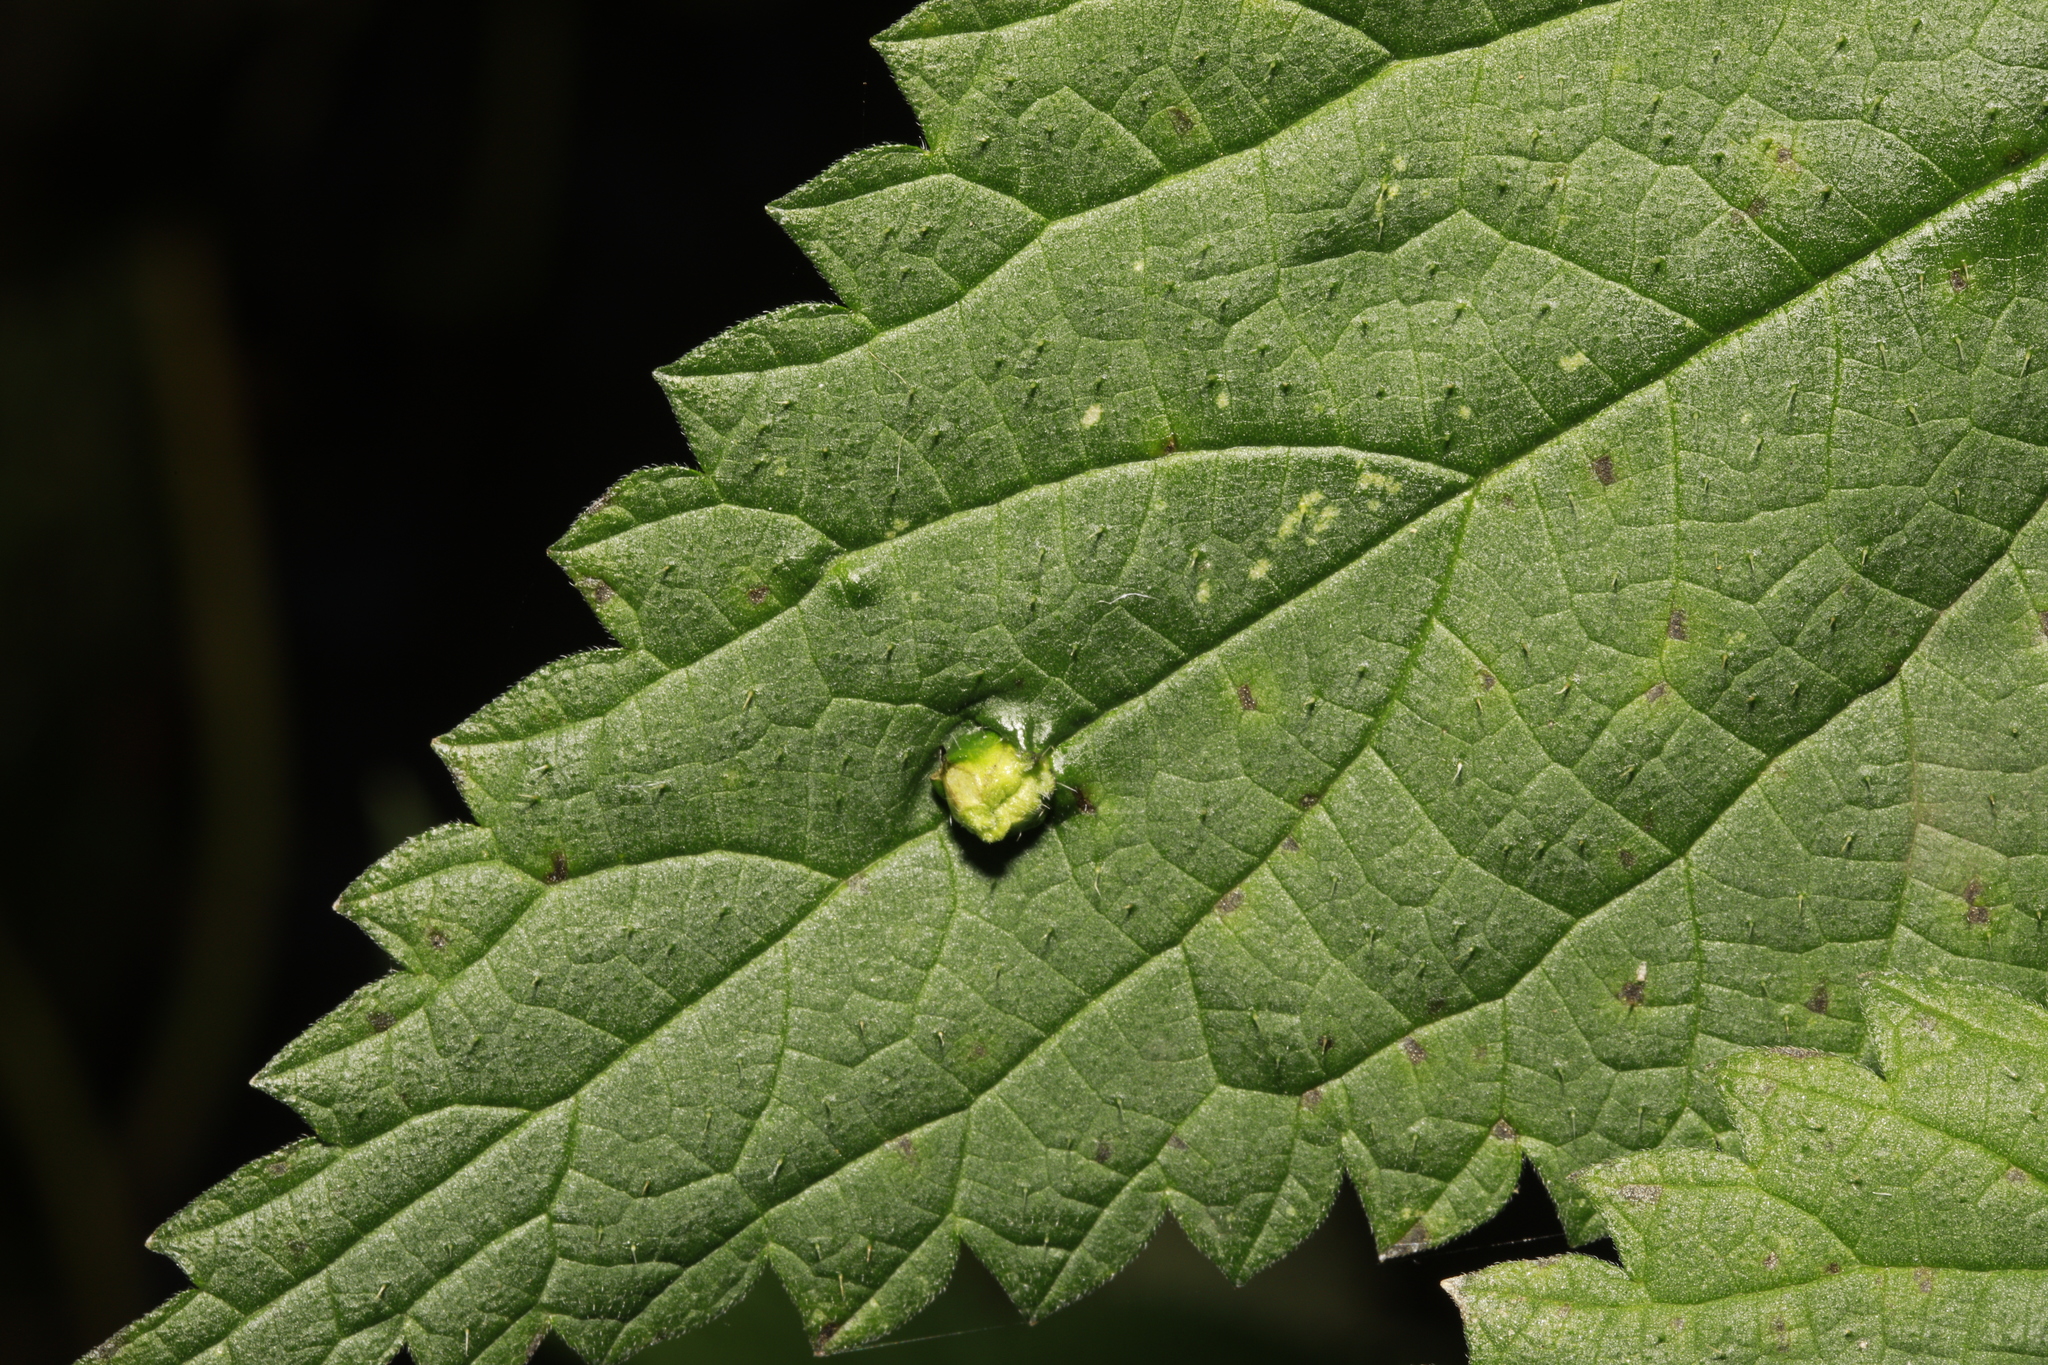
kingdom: Animalia
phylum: Arthropoda
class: Insecta
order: Diptera
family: Cecidomyiidae
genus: Dasineura
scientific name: Dasineura urticae
